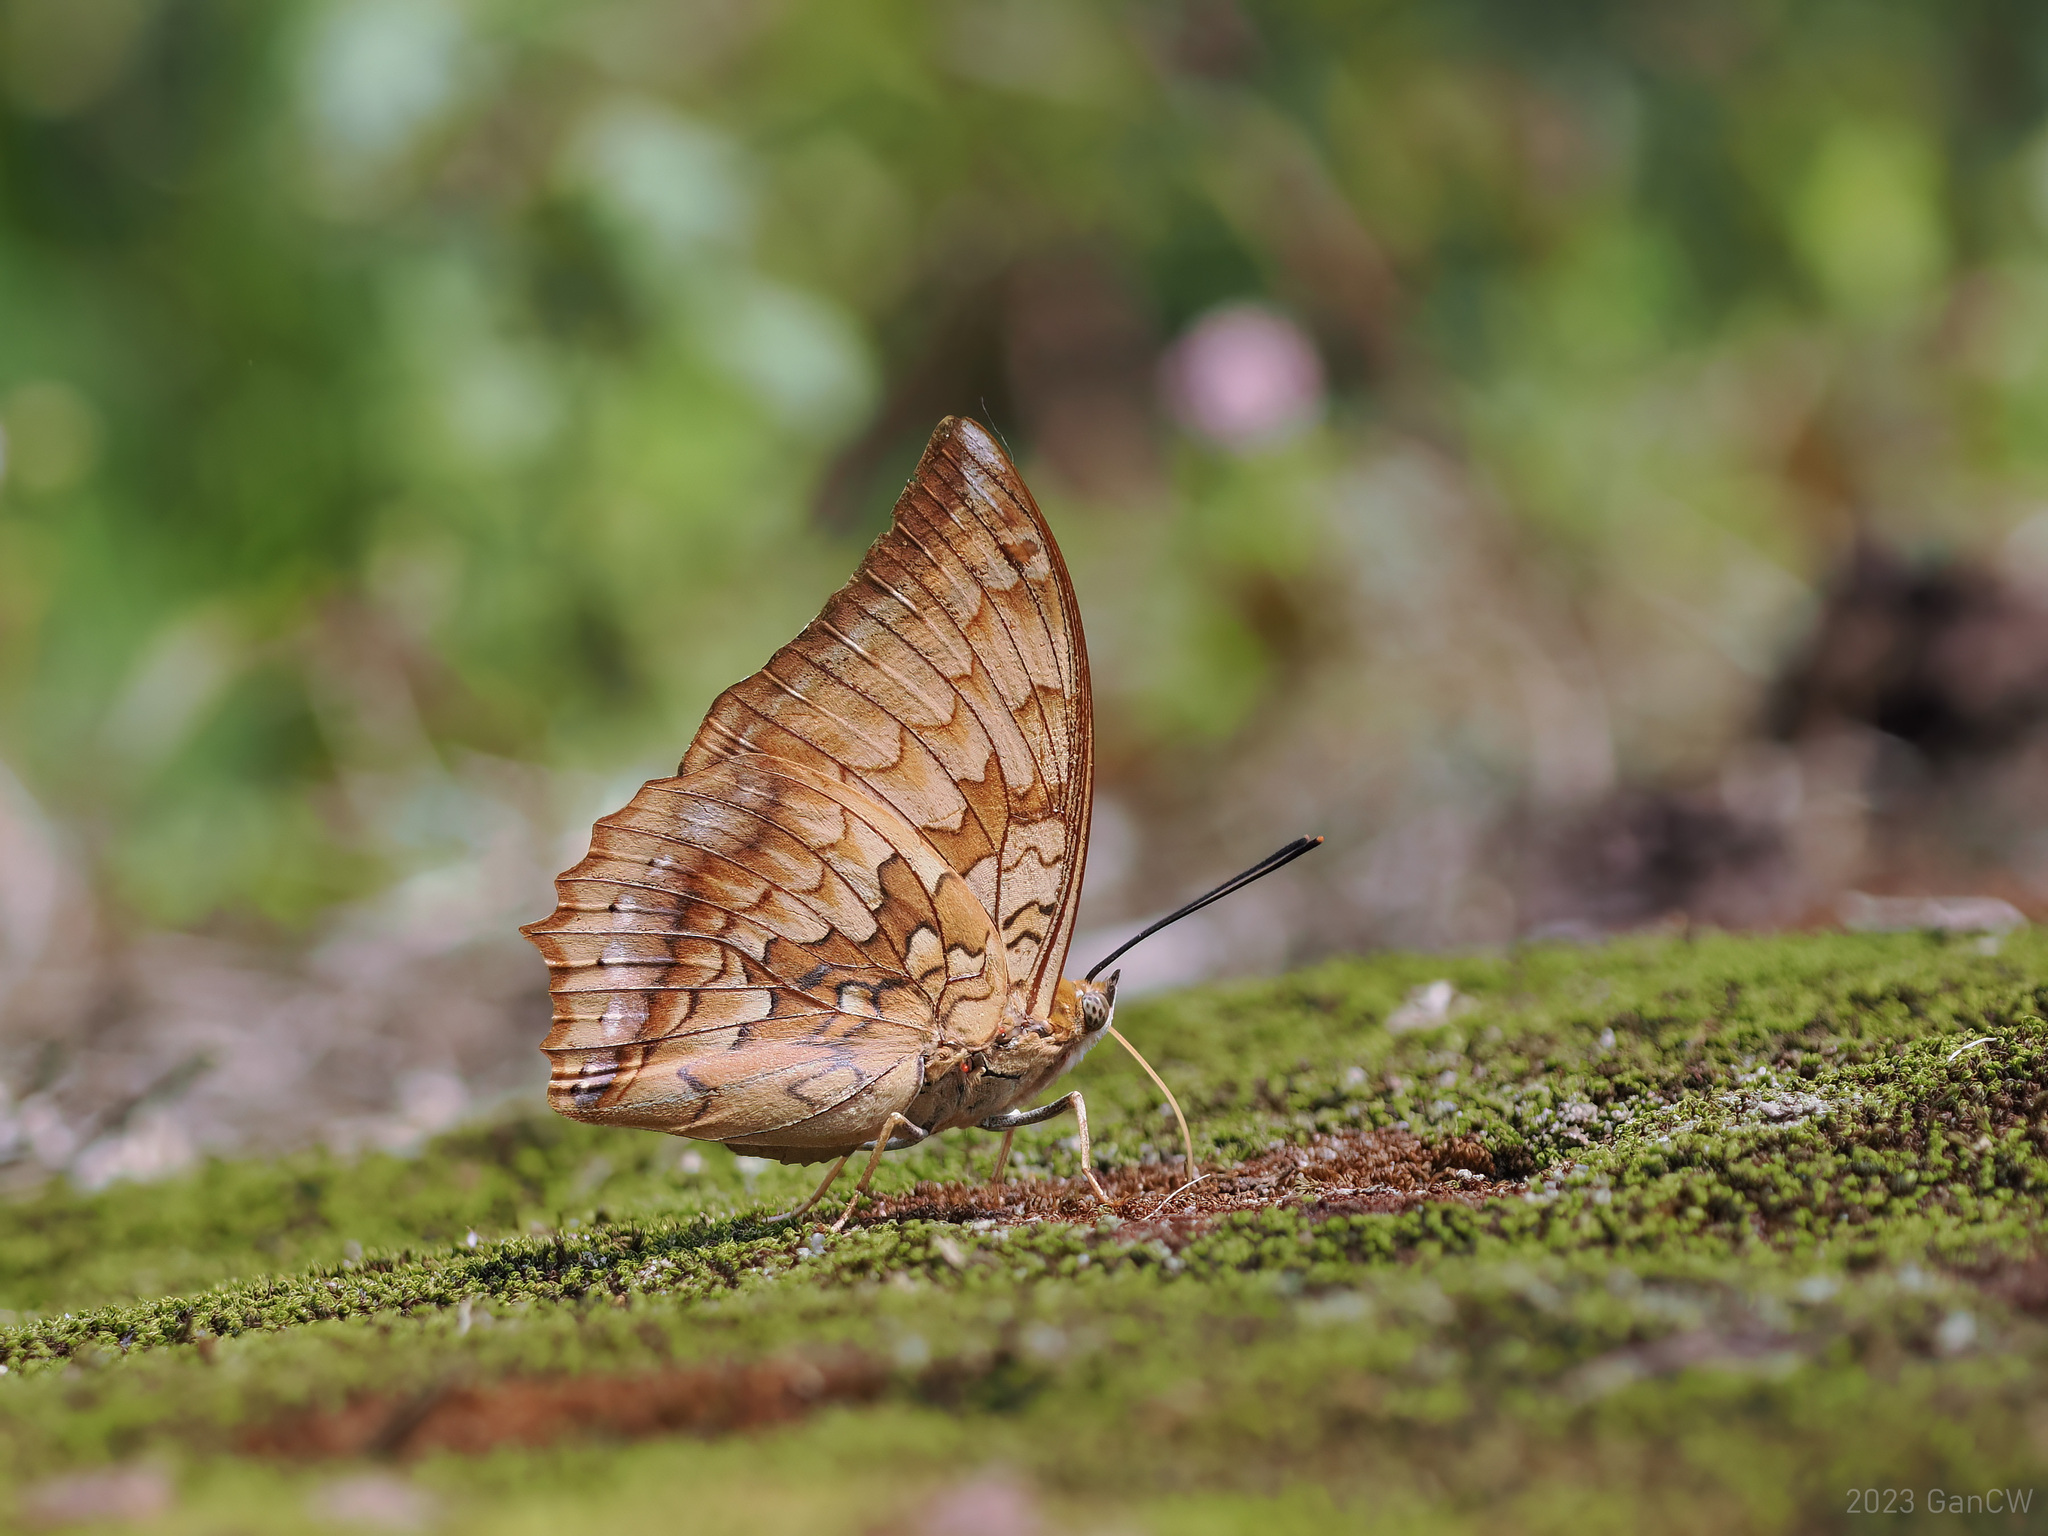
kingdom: Animalia
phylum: Arthropoda
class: Insecta
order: Lepidoptera
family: Nymphalidae
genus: Charaxes
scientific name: Charaxes kahruba
